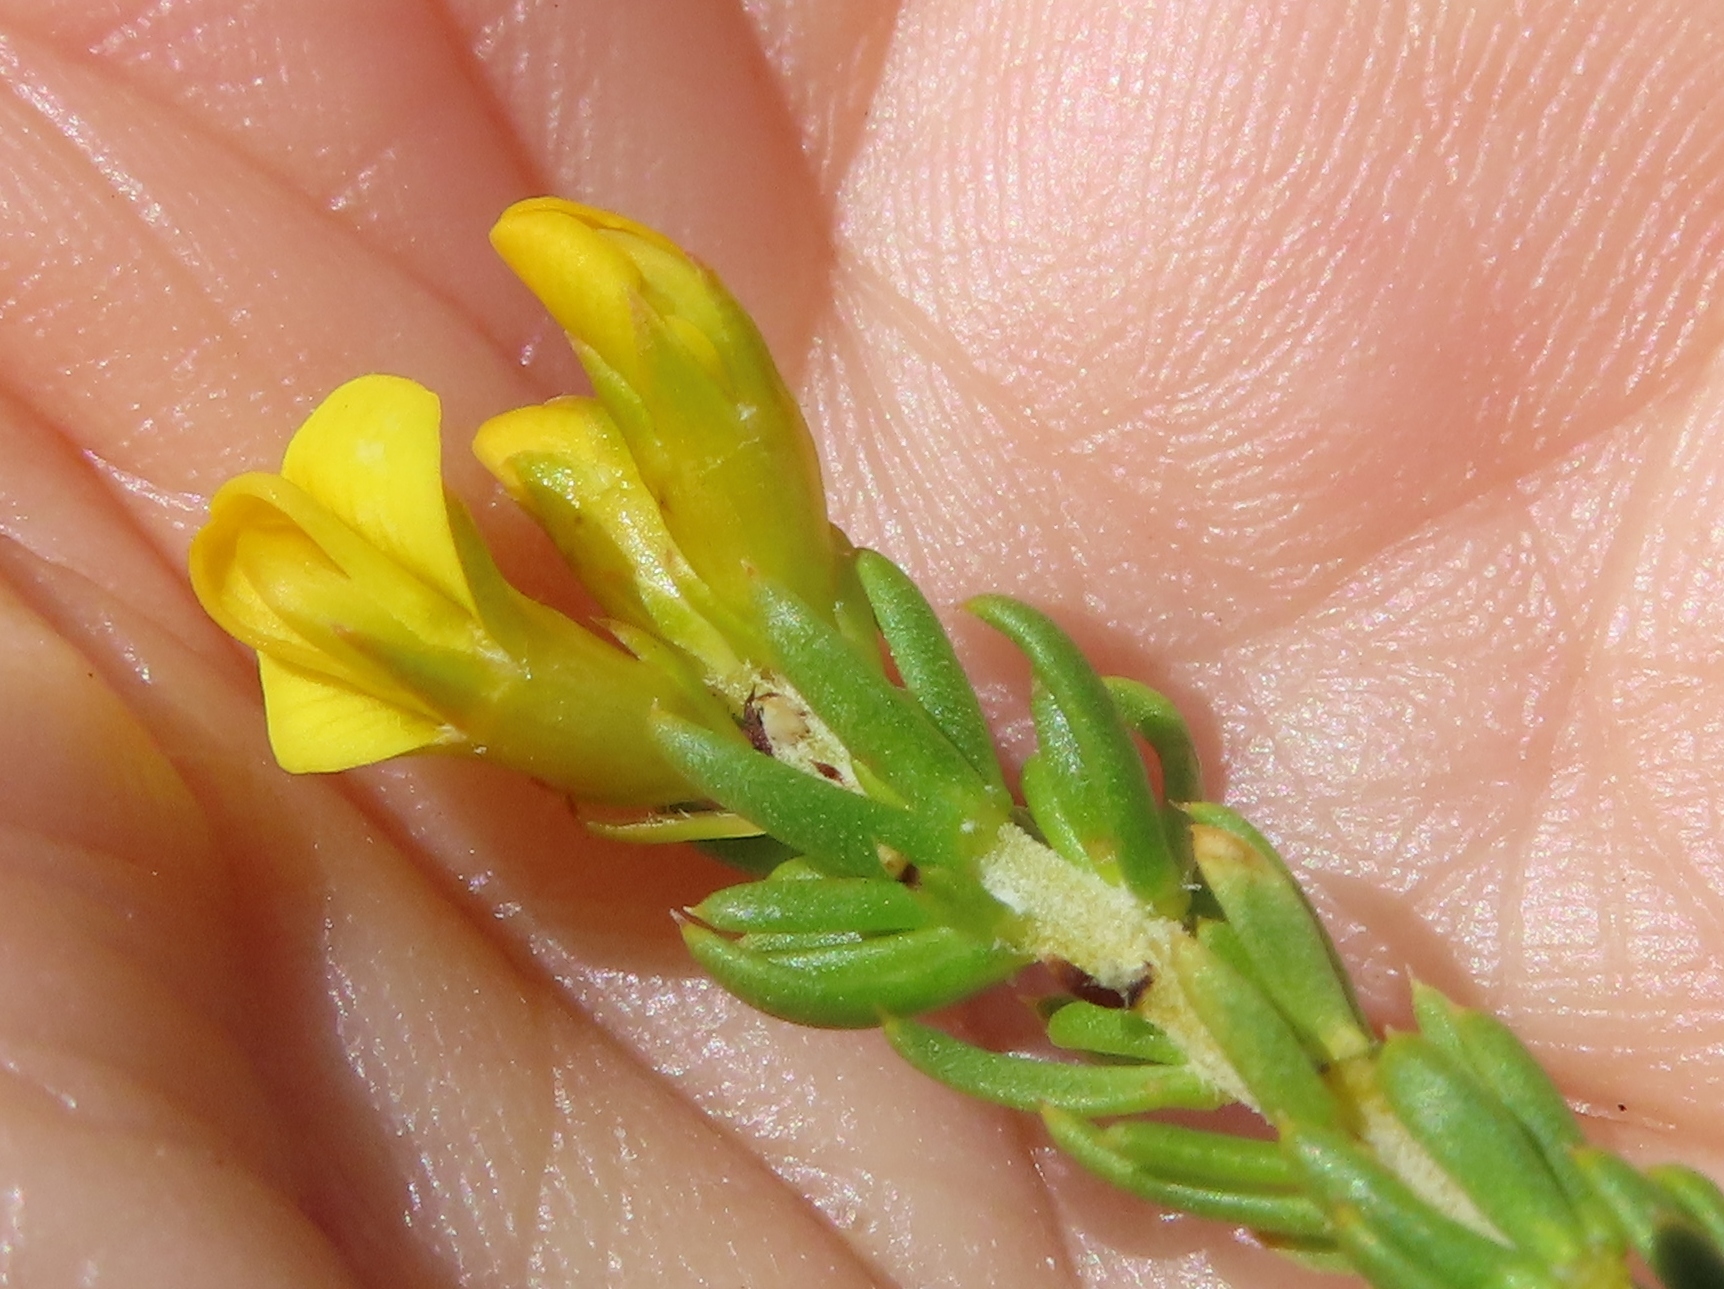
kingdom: Plantae
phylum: Tracheophyta
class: Magnoliopsida
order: Fabales
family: Fabaceae
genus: Aspalathus
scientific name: Aspalathus tylodes
